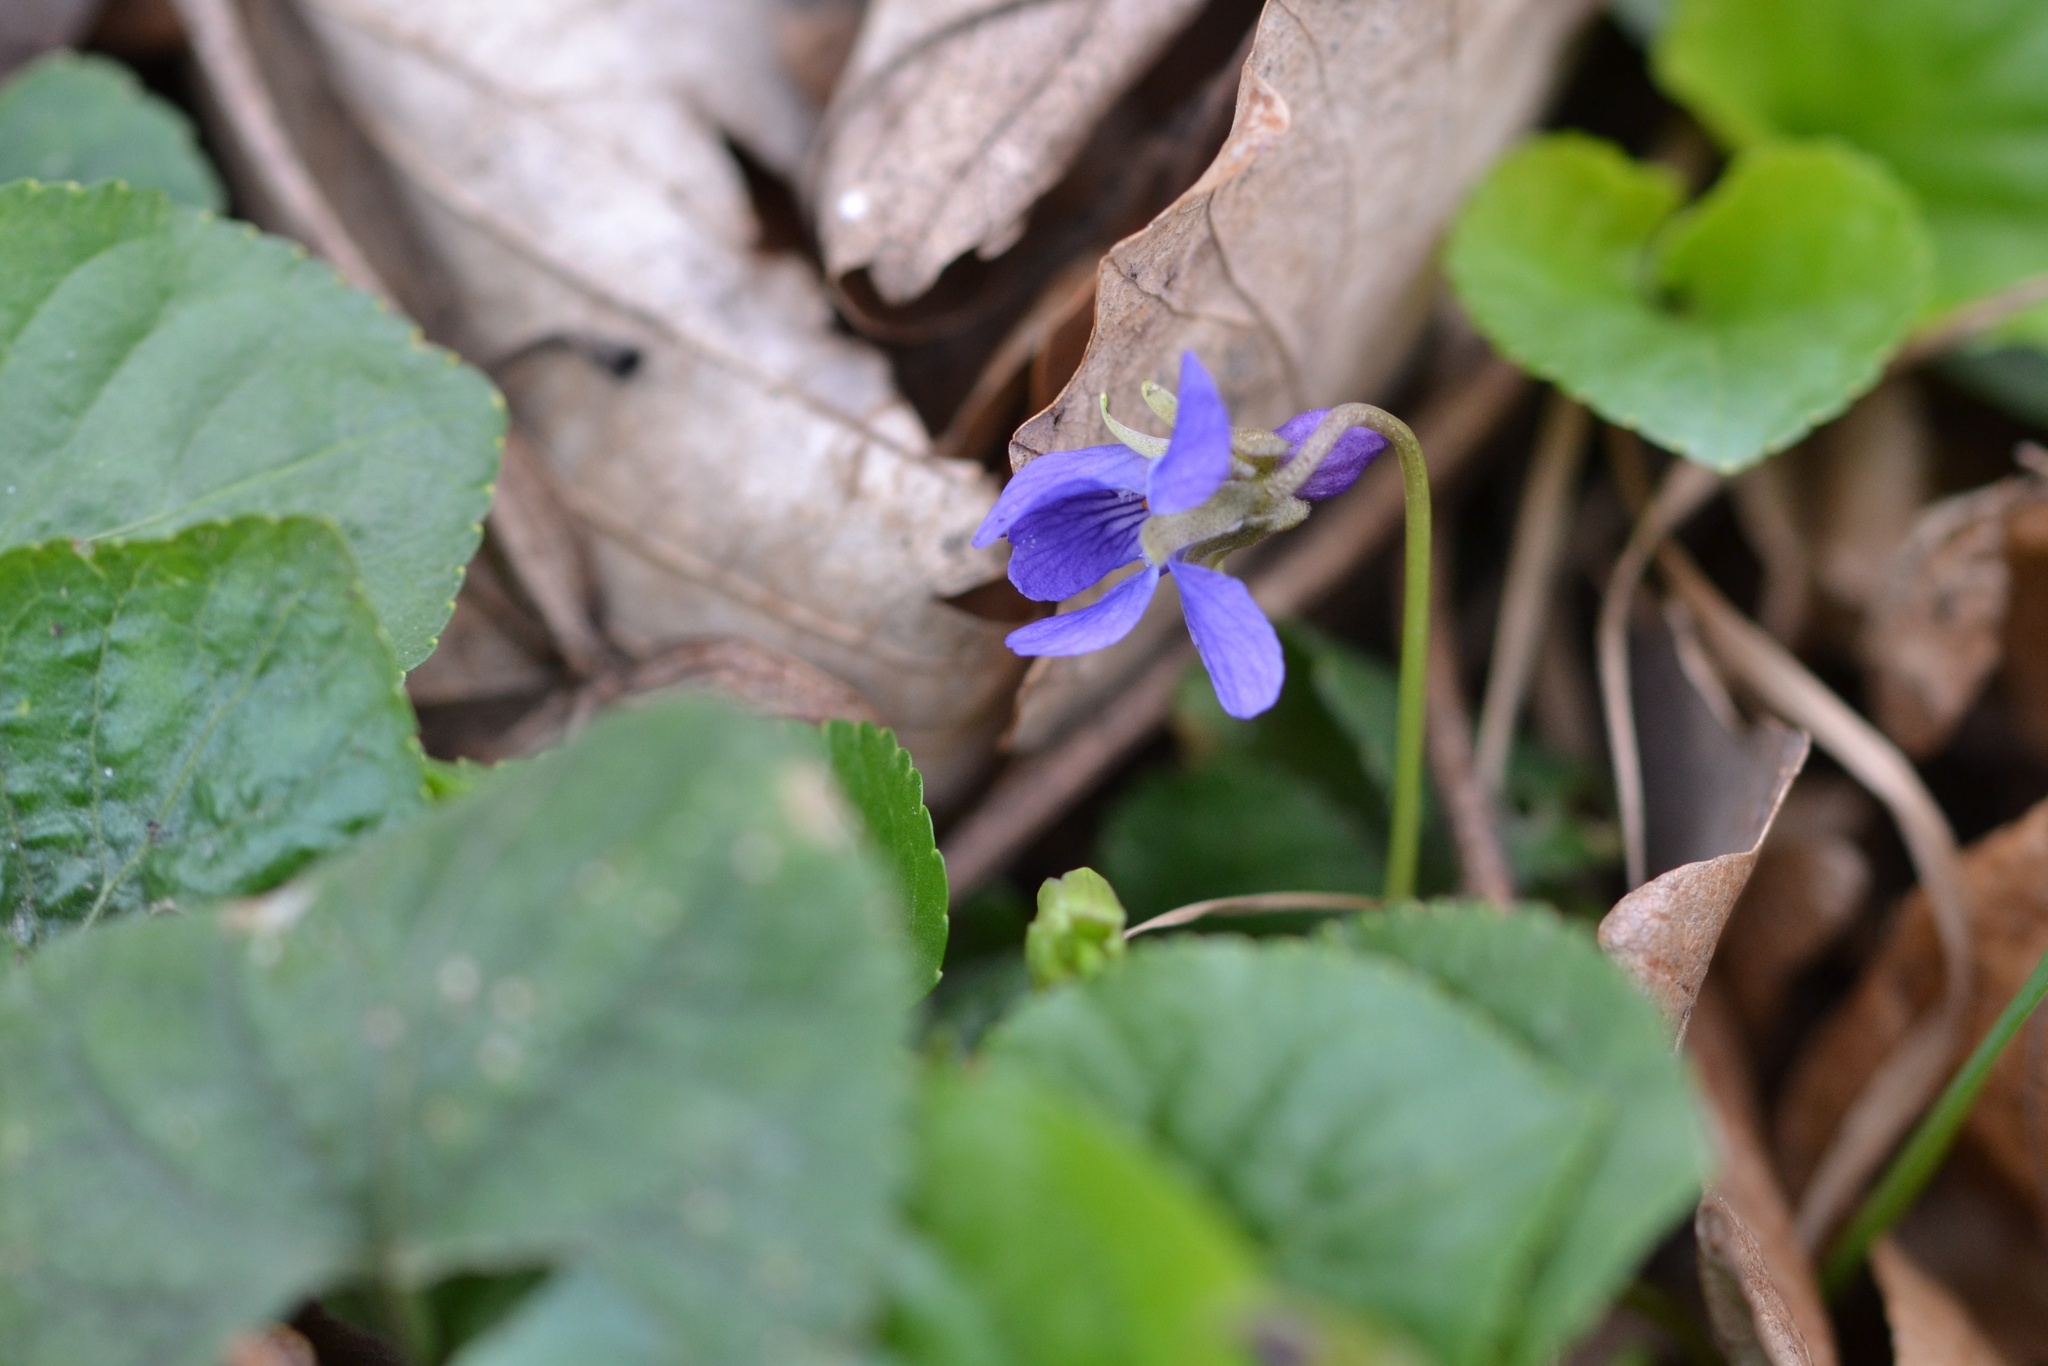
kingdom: Plantae
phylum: Tracheophyta
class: Magnoliopsida
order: Malpighiales
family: Violaceae
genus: Viola
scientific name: Viola odorata
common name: Sweet violet
